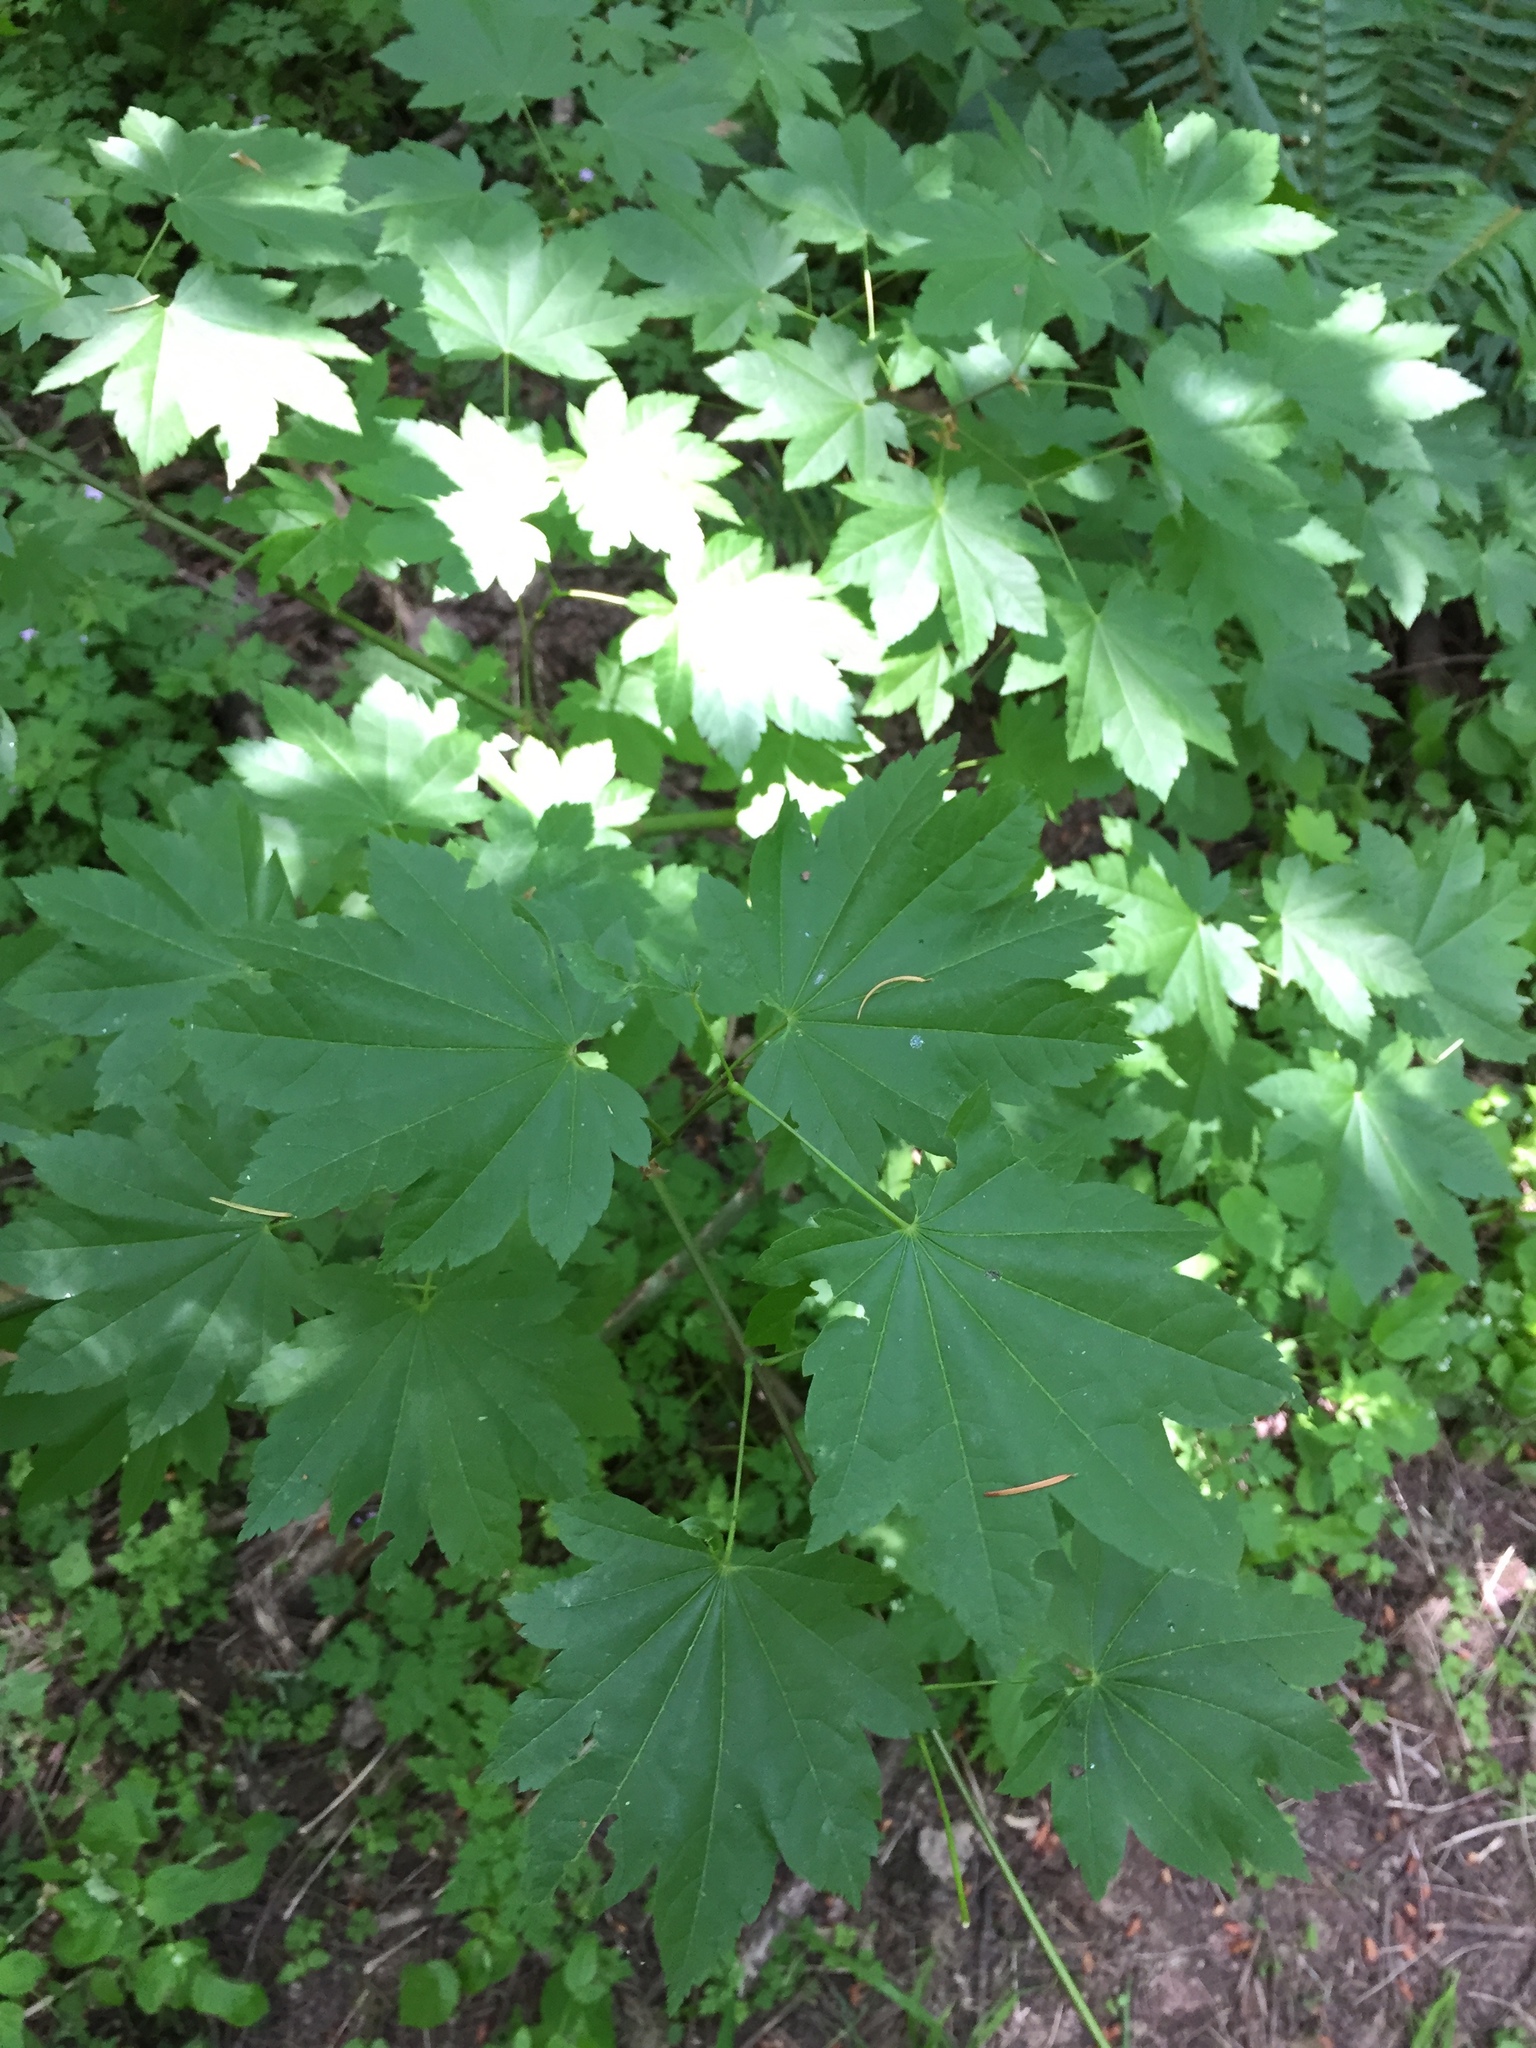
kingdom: Plantae
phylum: Tracheophyta
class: Magnoliopsida
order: Sapindales
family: Sapindaceae
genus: Acer
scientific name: Acer circinatum
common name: Vine maple
